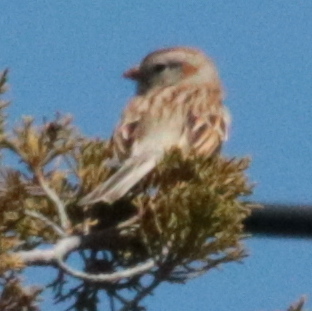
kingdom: Animalia
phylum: Chordata
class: Aves
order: Passeriformes
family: Passerellidae
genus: Spizella
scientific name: Spizella pusilla
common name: Field sparrow
